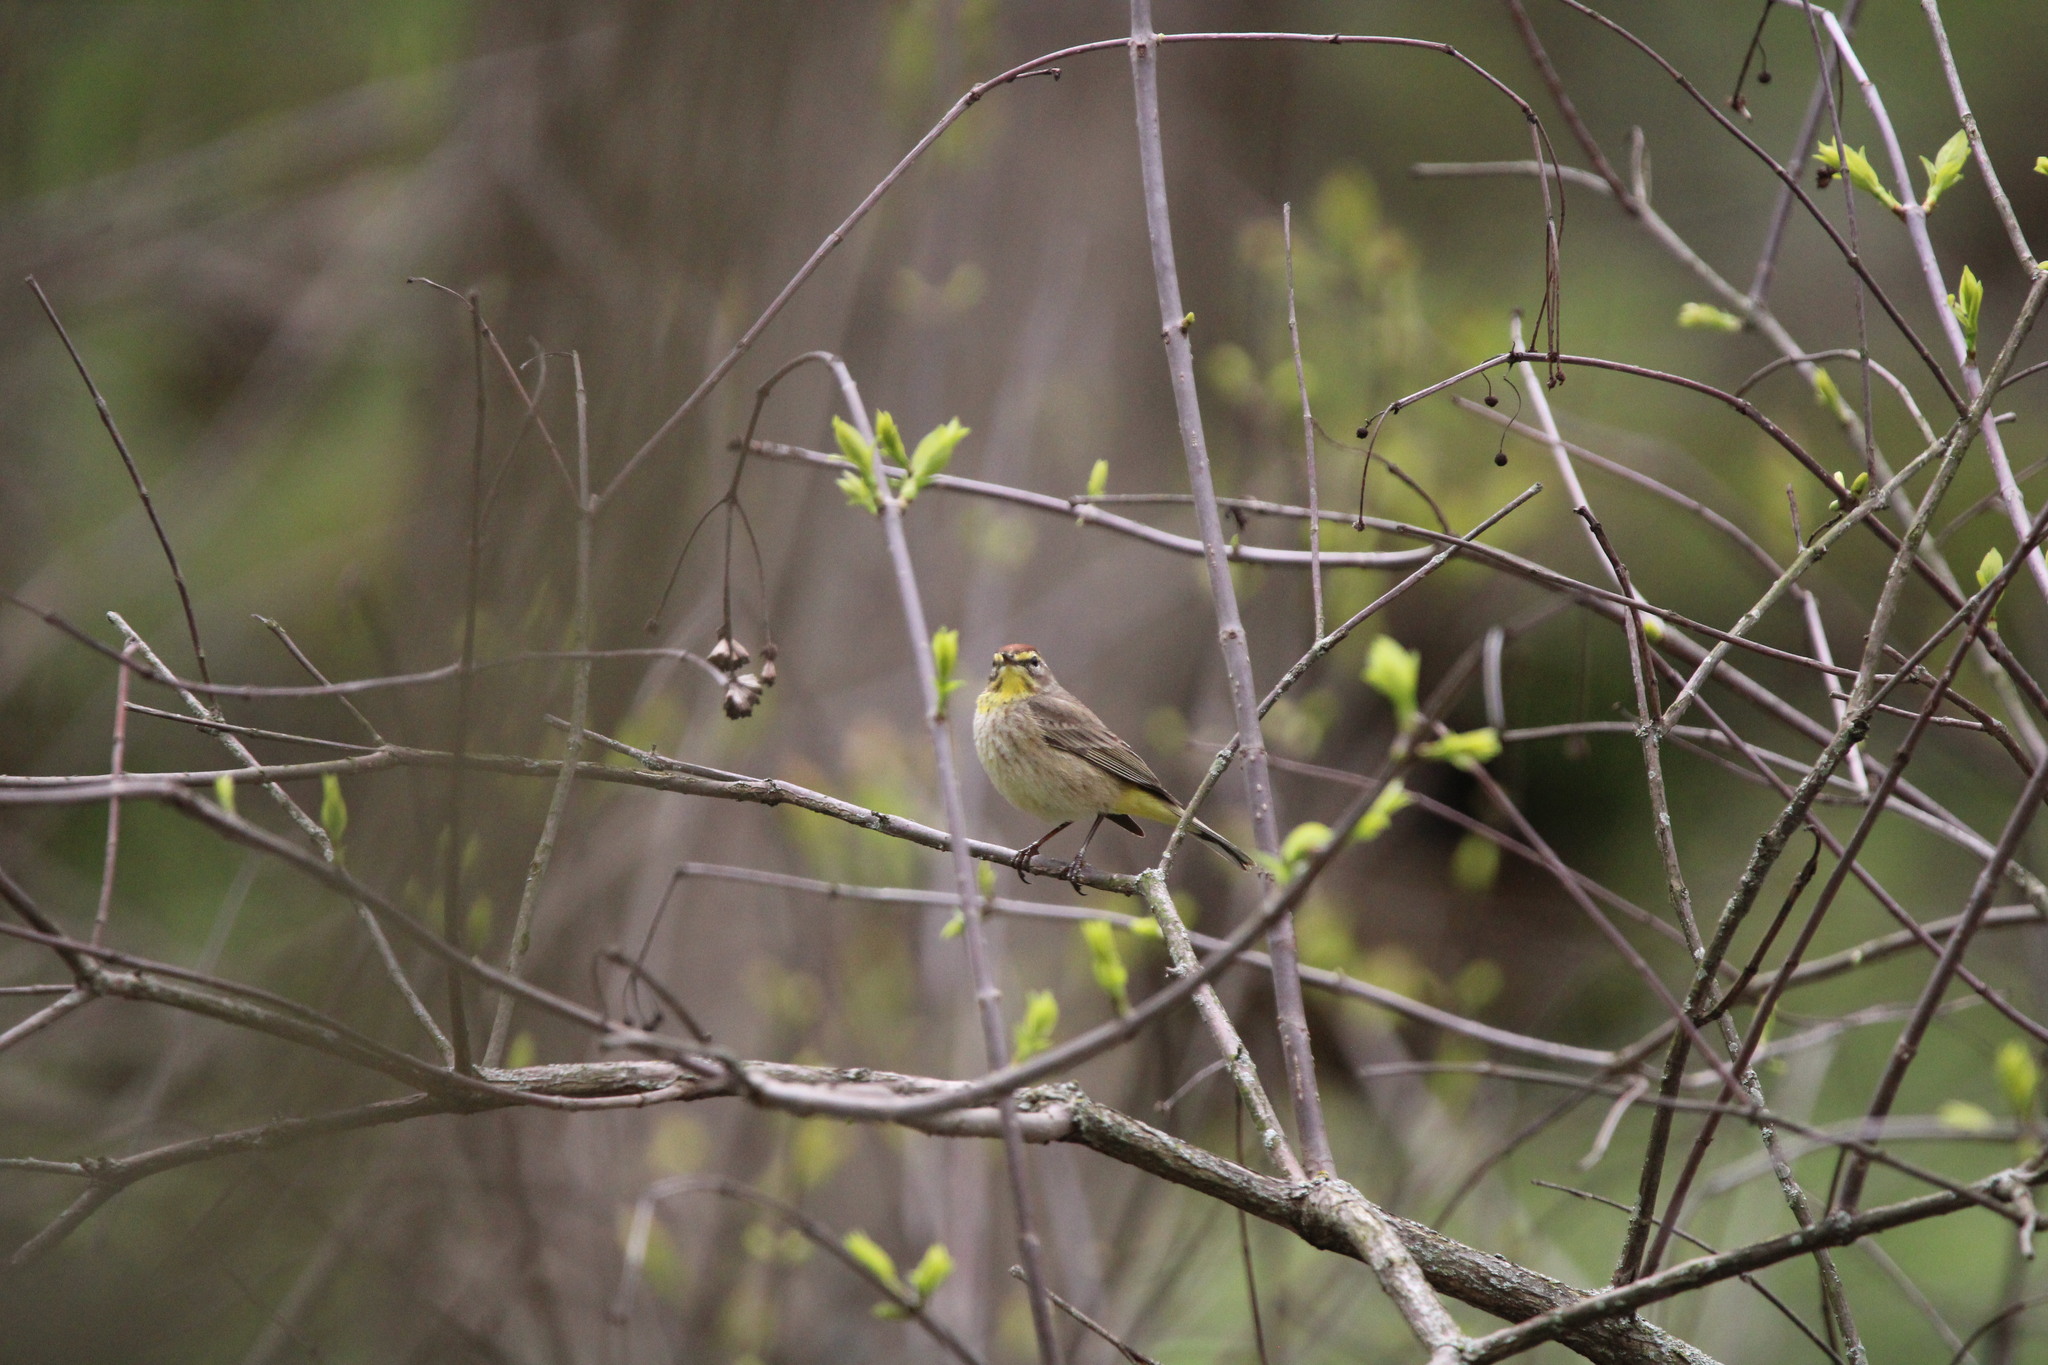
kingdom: Animalia
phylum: Chordata
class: Aves
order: Passeriformes
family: Parulidae
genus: Setophaga
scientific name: Setophaga palmarum
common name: Palm warbler
